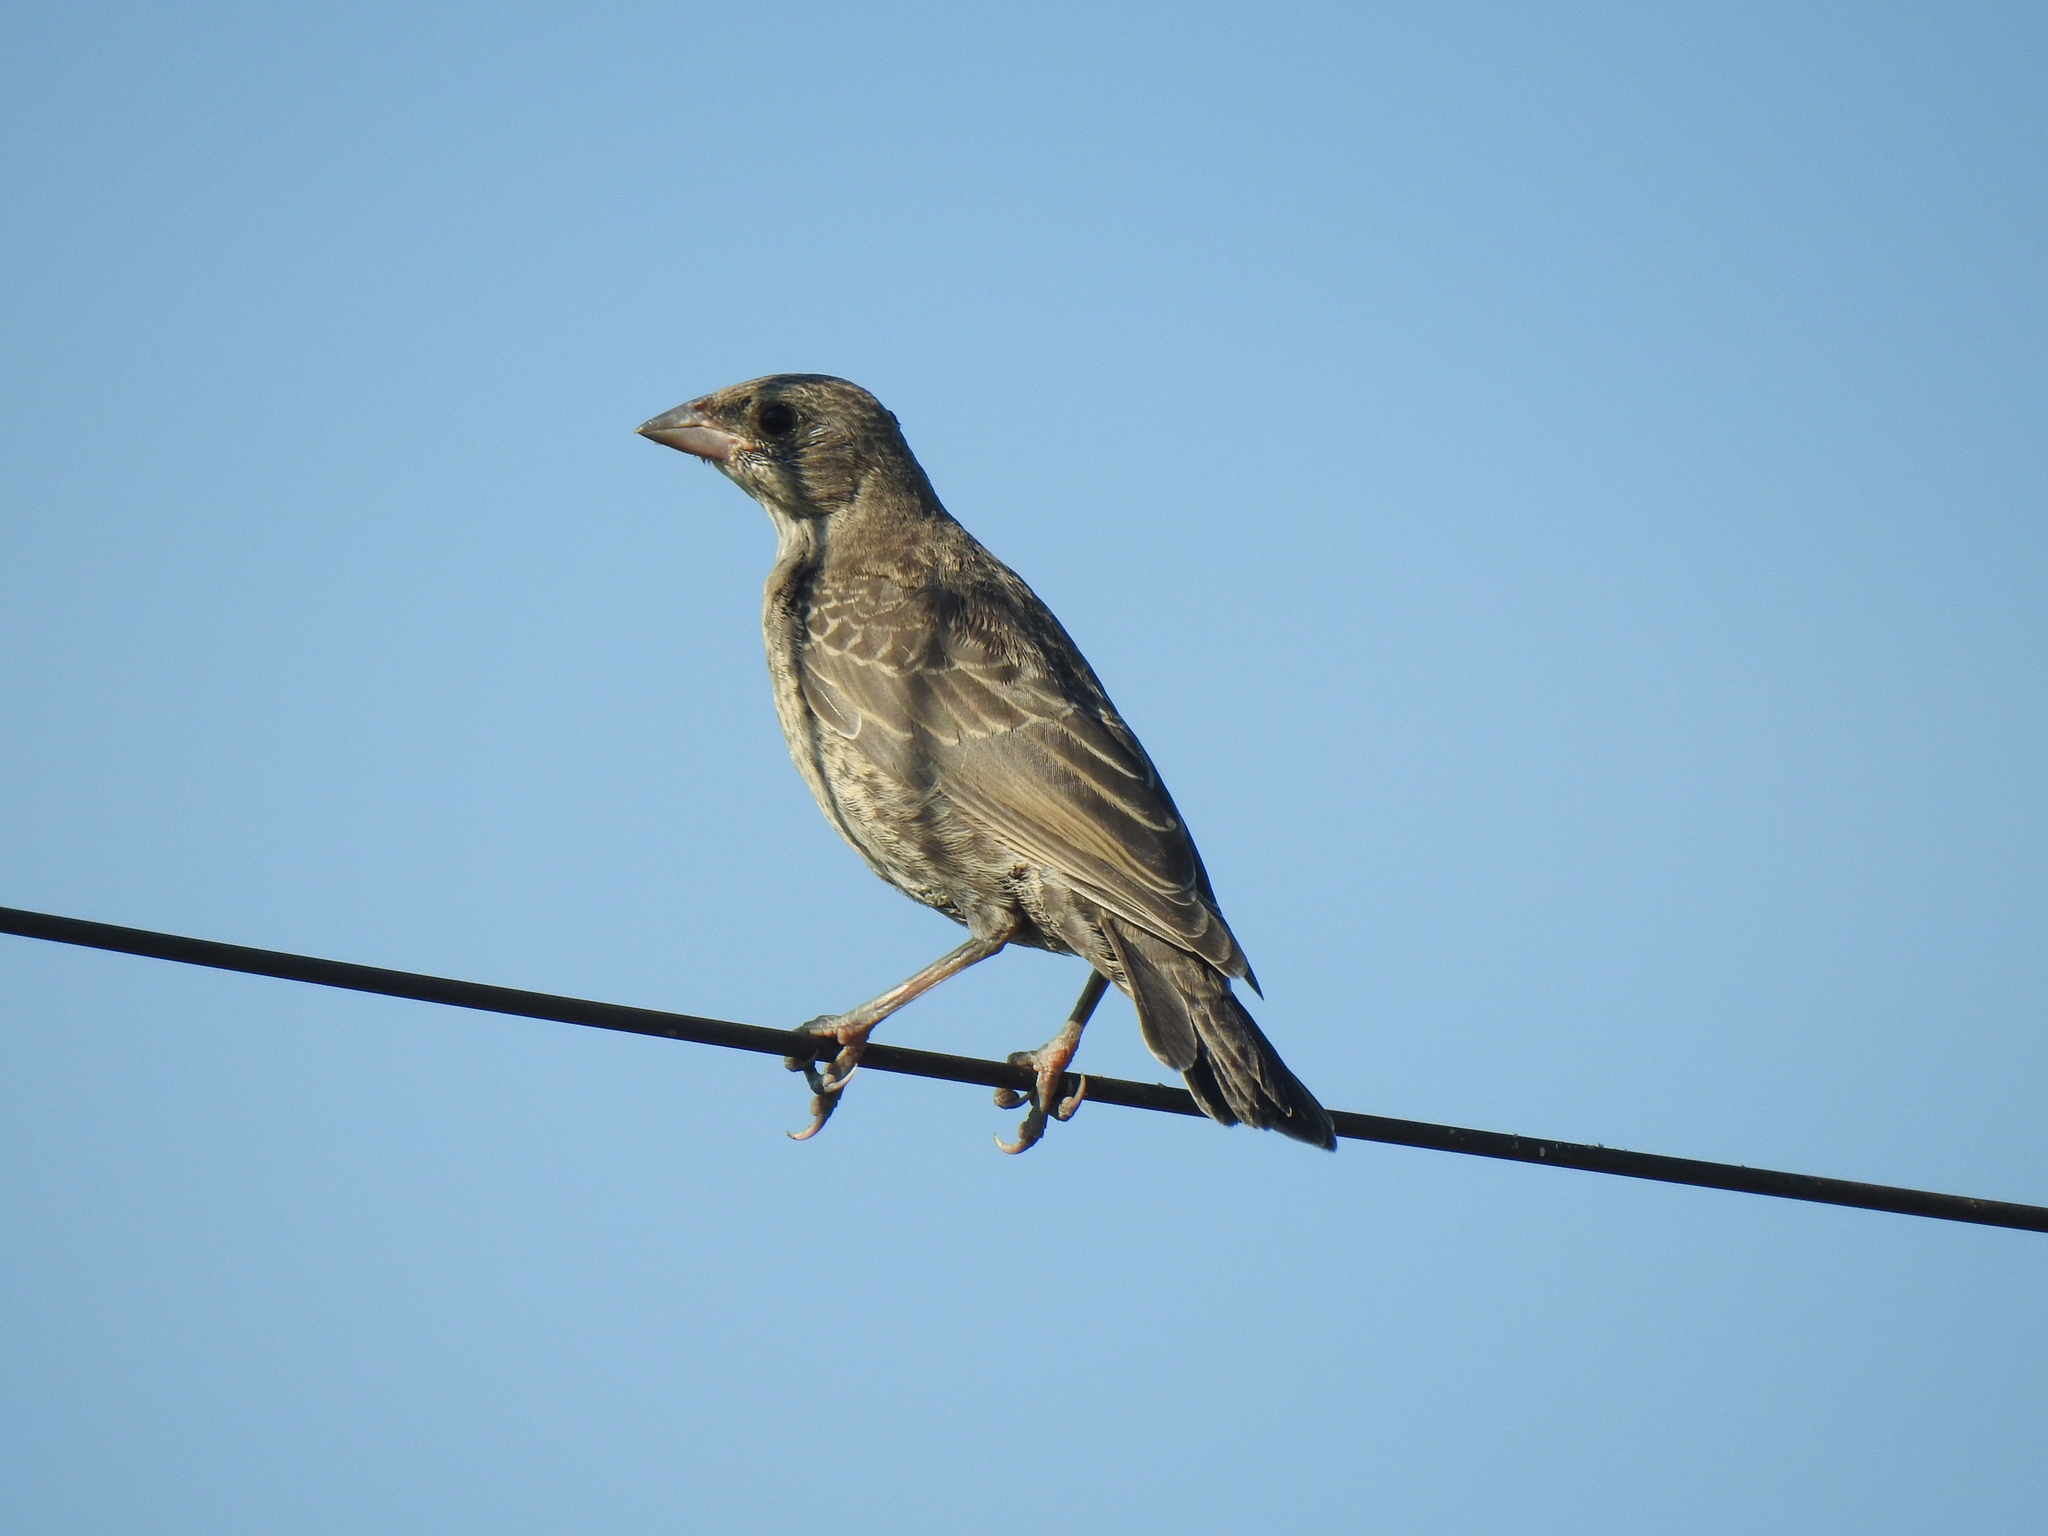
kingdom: Animalia
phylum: Chordata
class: Aves
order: Passeriformes
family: Icteridae
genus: Molothrus
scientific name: Molothrus ater
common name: Brown-headed cowbird
